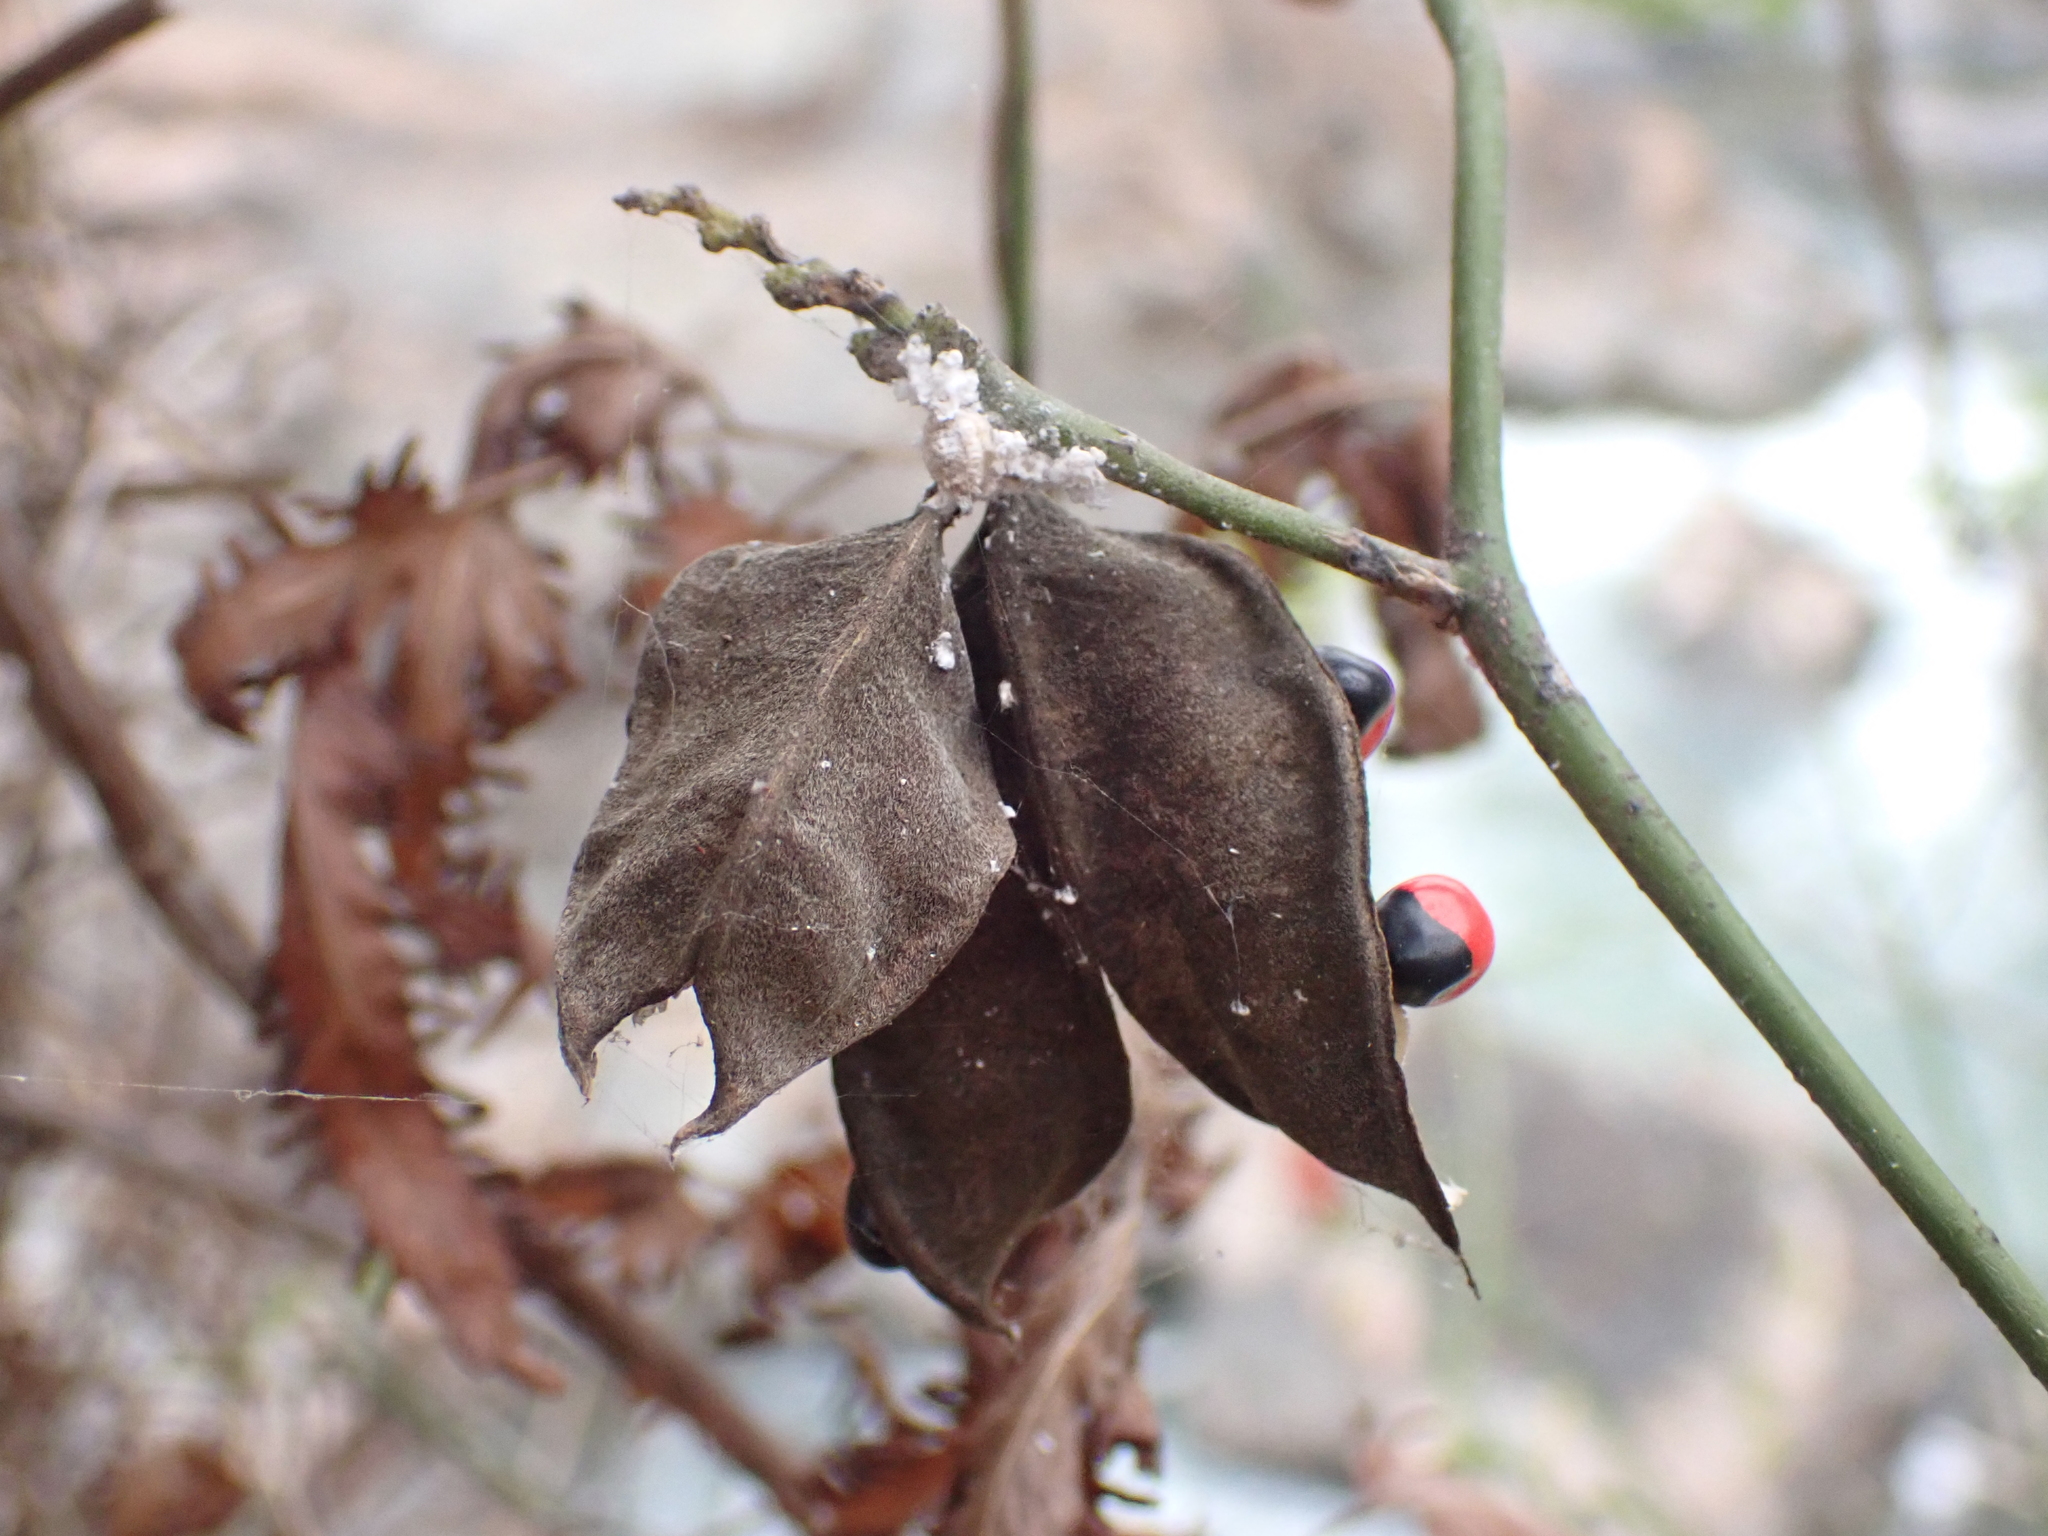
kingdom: Plantae
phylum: Tracheophyta
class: Magnoliopsida
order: Fabales
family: Fabaceae
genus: Abrus
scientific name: Abrus precatorius
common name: Rosarypea
